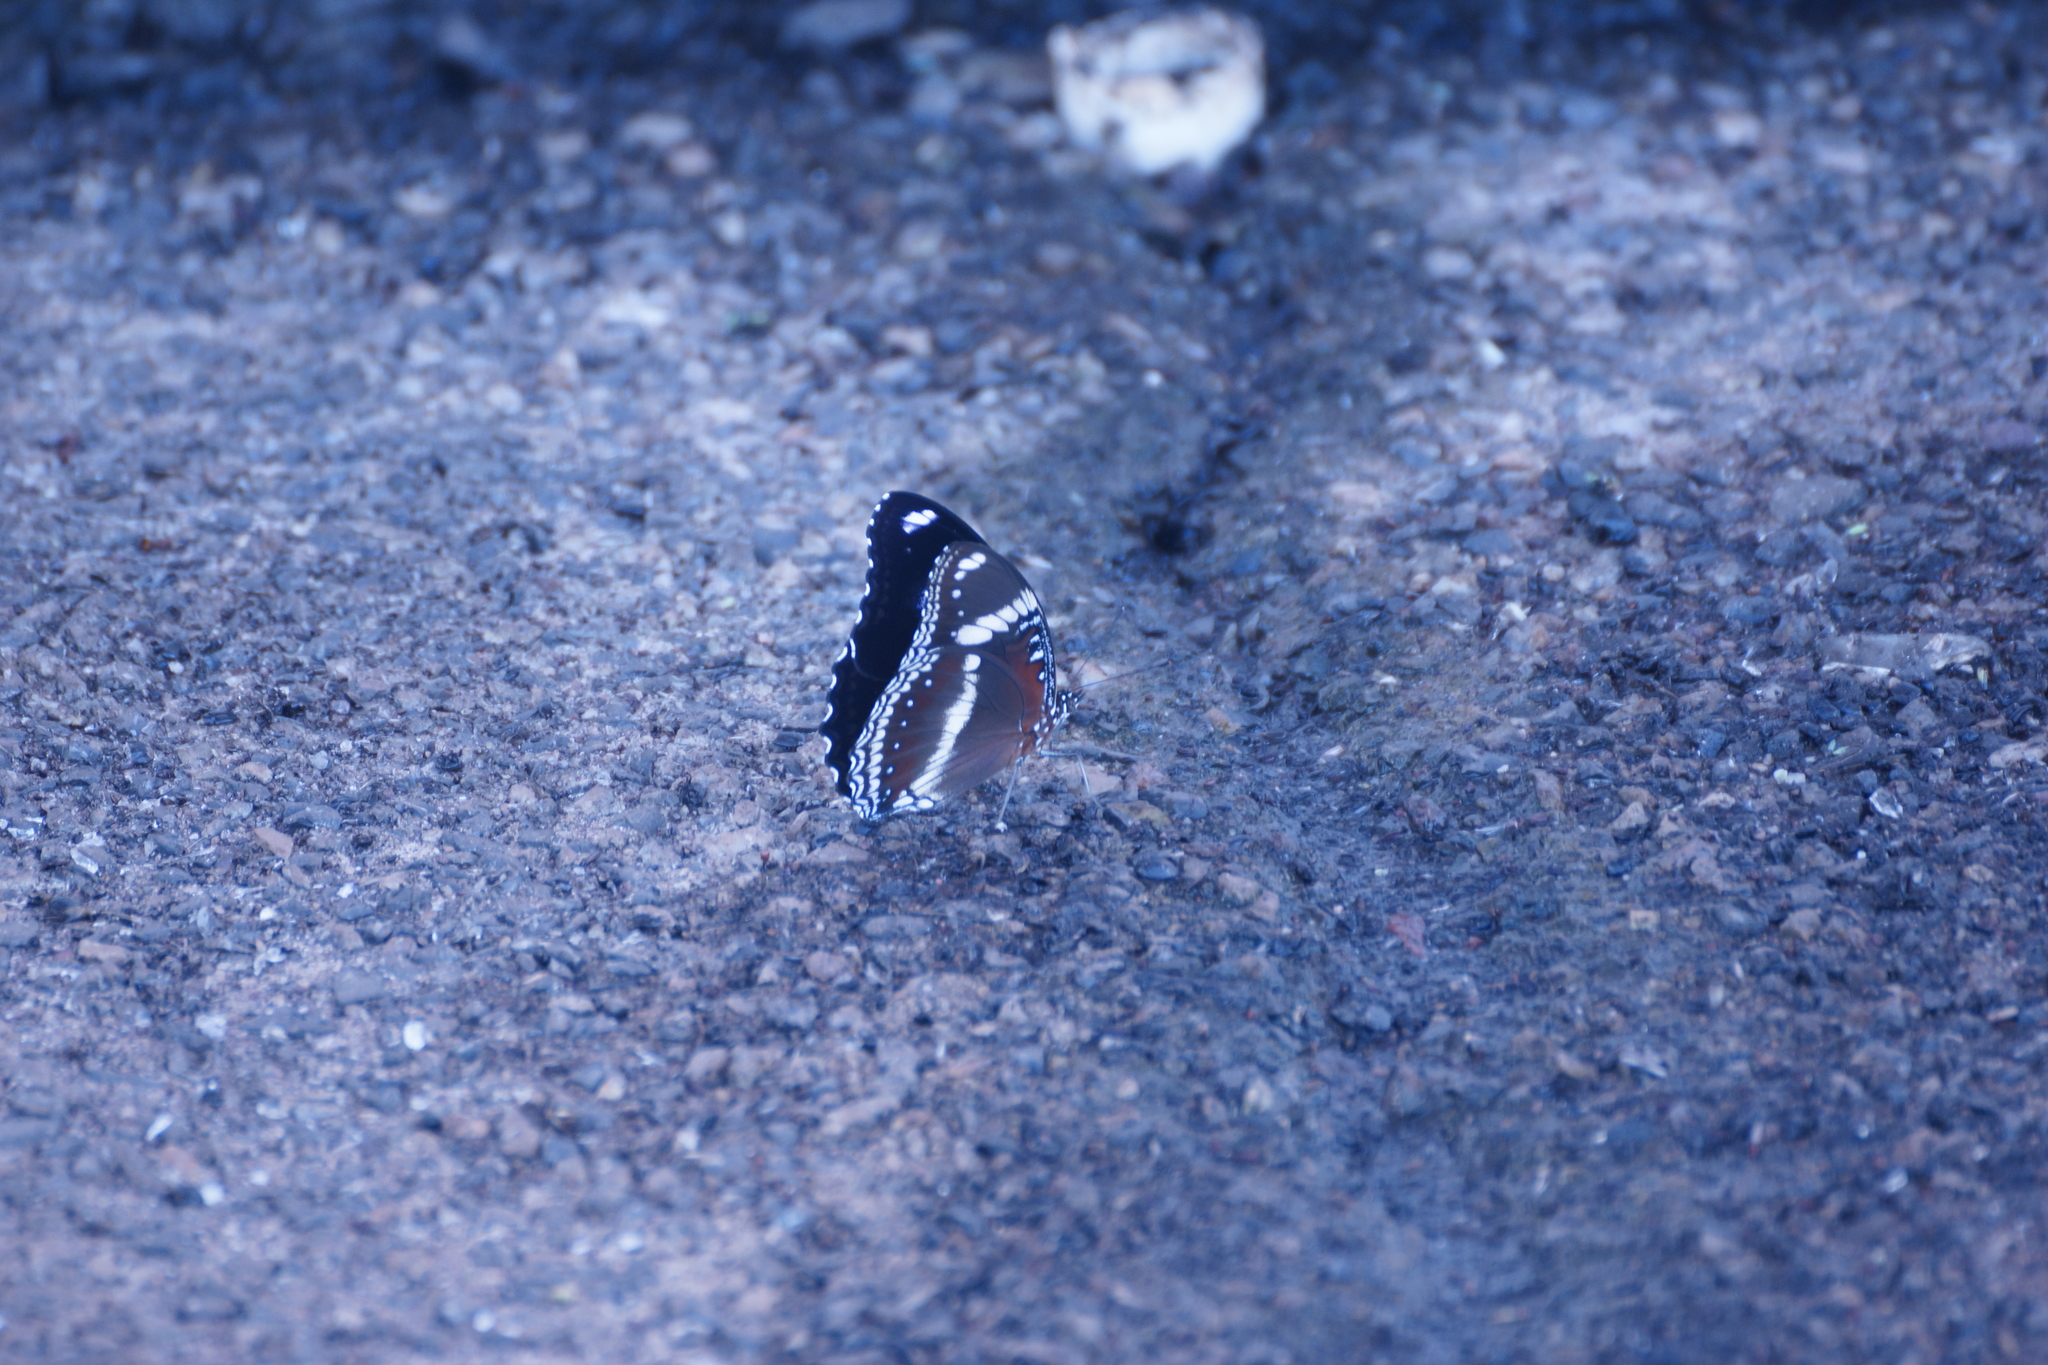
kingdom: Animalia
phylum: Arthropoda
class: Insecta
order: Lepidoptera
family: Nymphalidae
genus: Hypolimnas
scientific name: Hypolimnas bolina
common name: Great eggfly
